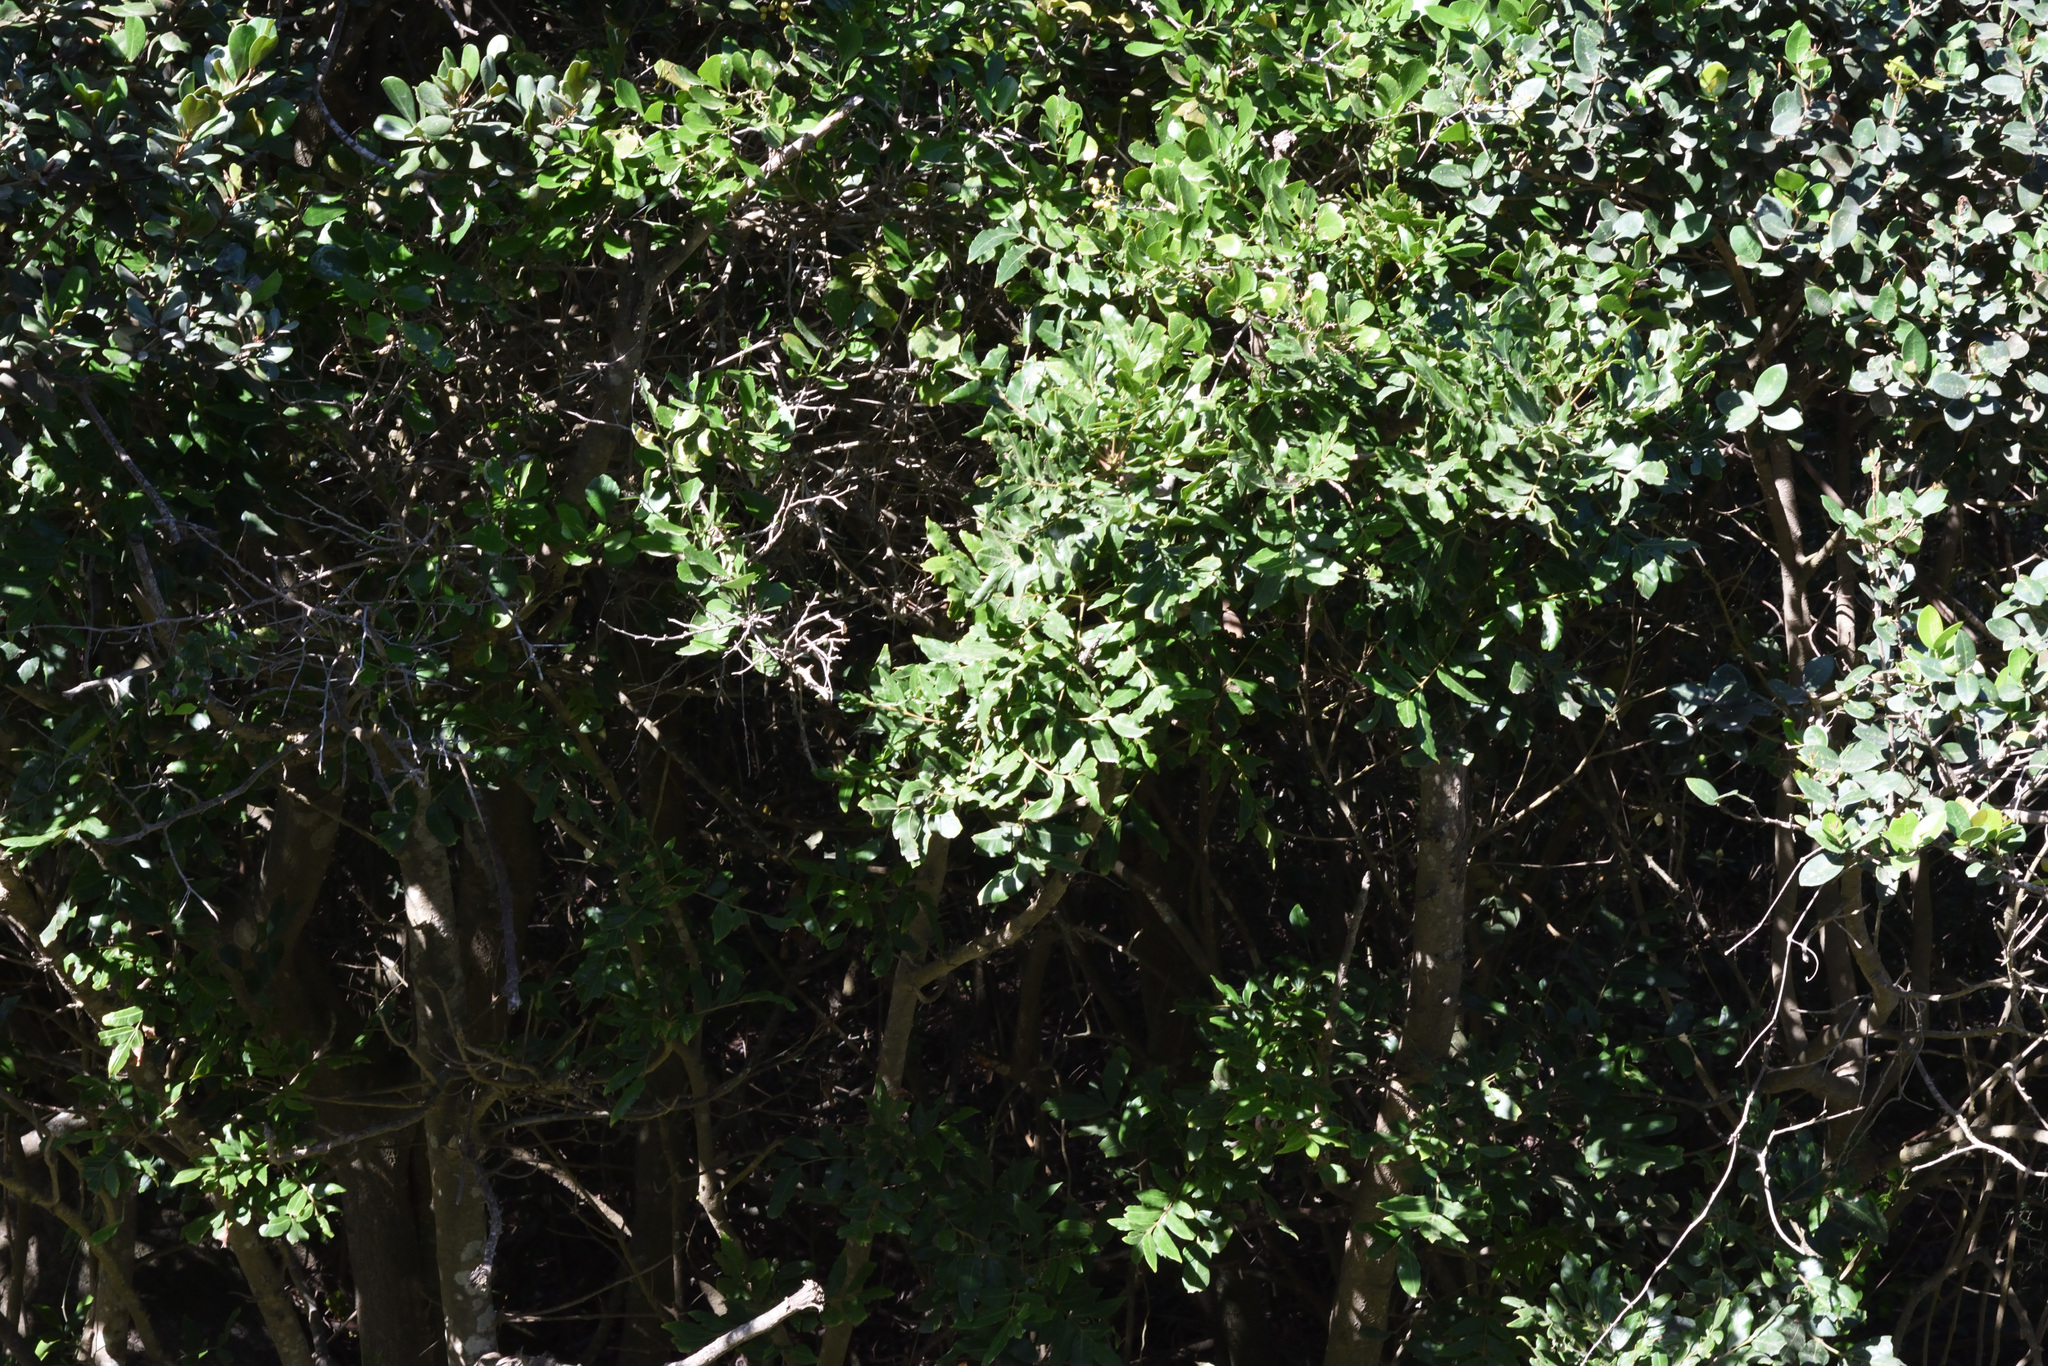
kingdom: Plantae
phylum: Tracheophyta
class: Magnoliopsida
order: Sapindales
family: Anacardiaceae
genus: Harpephyllum
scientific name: Harpephyllum caffrum
